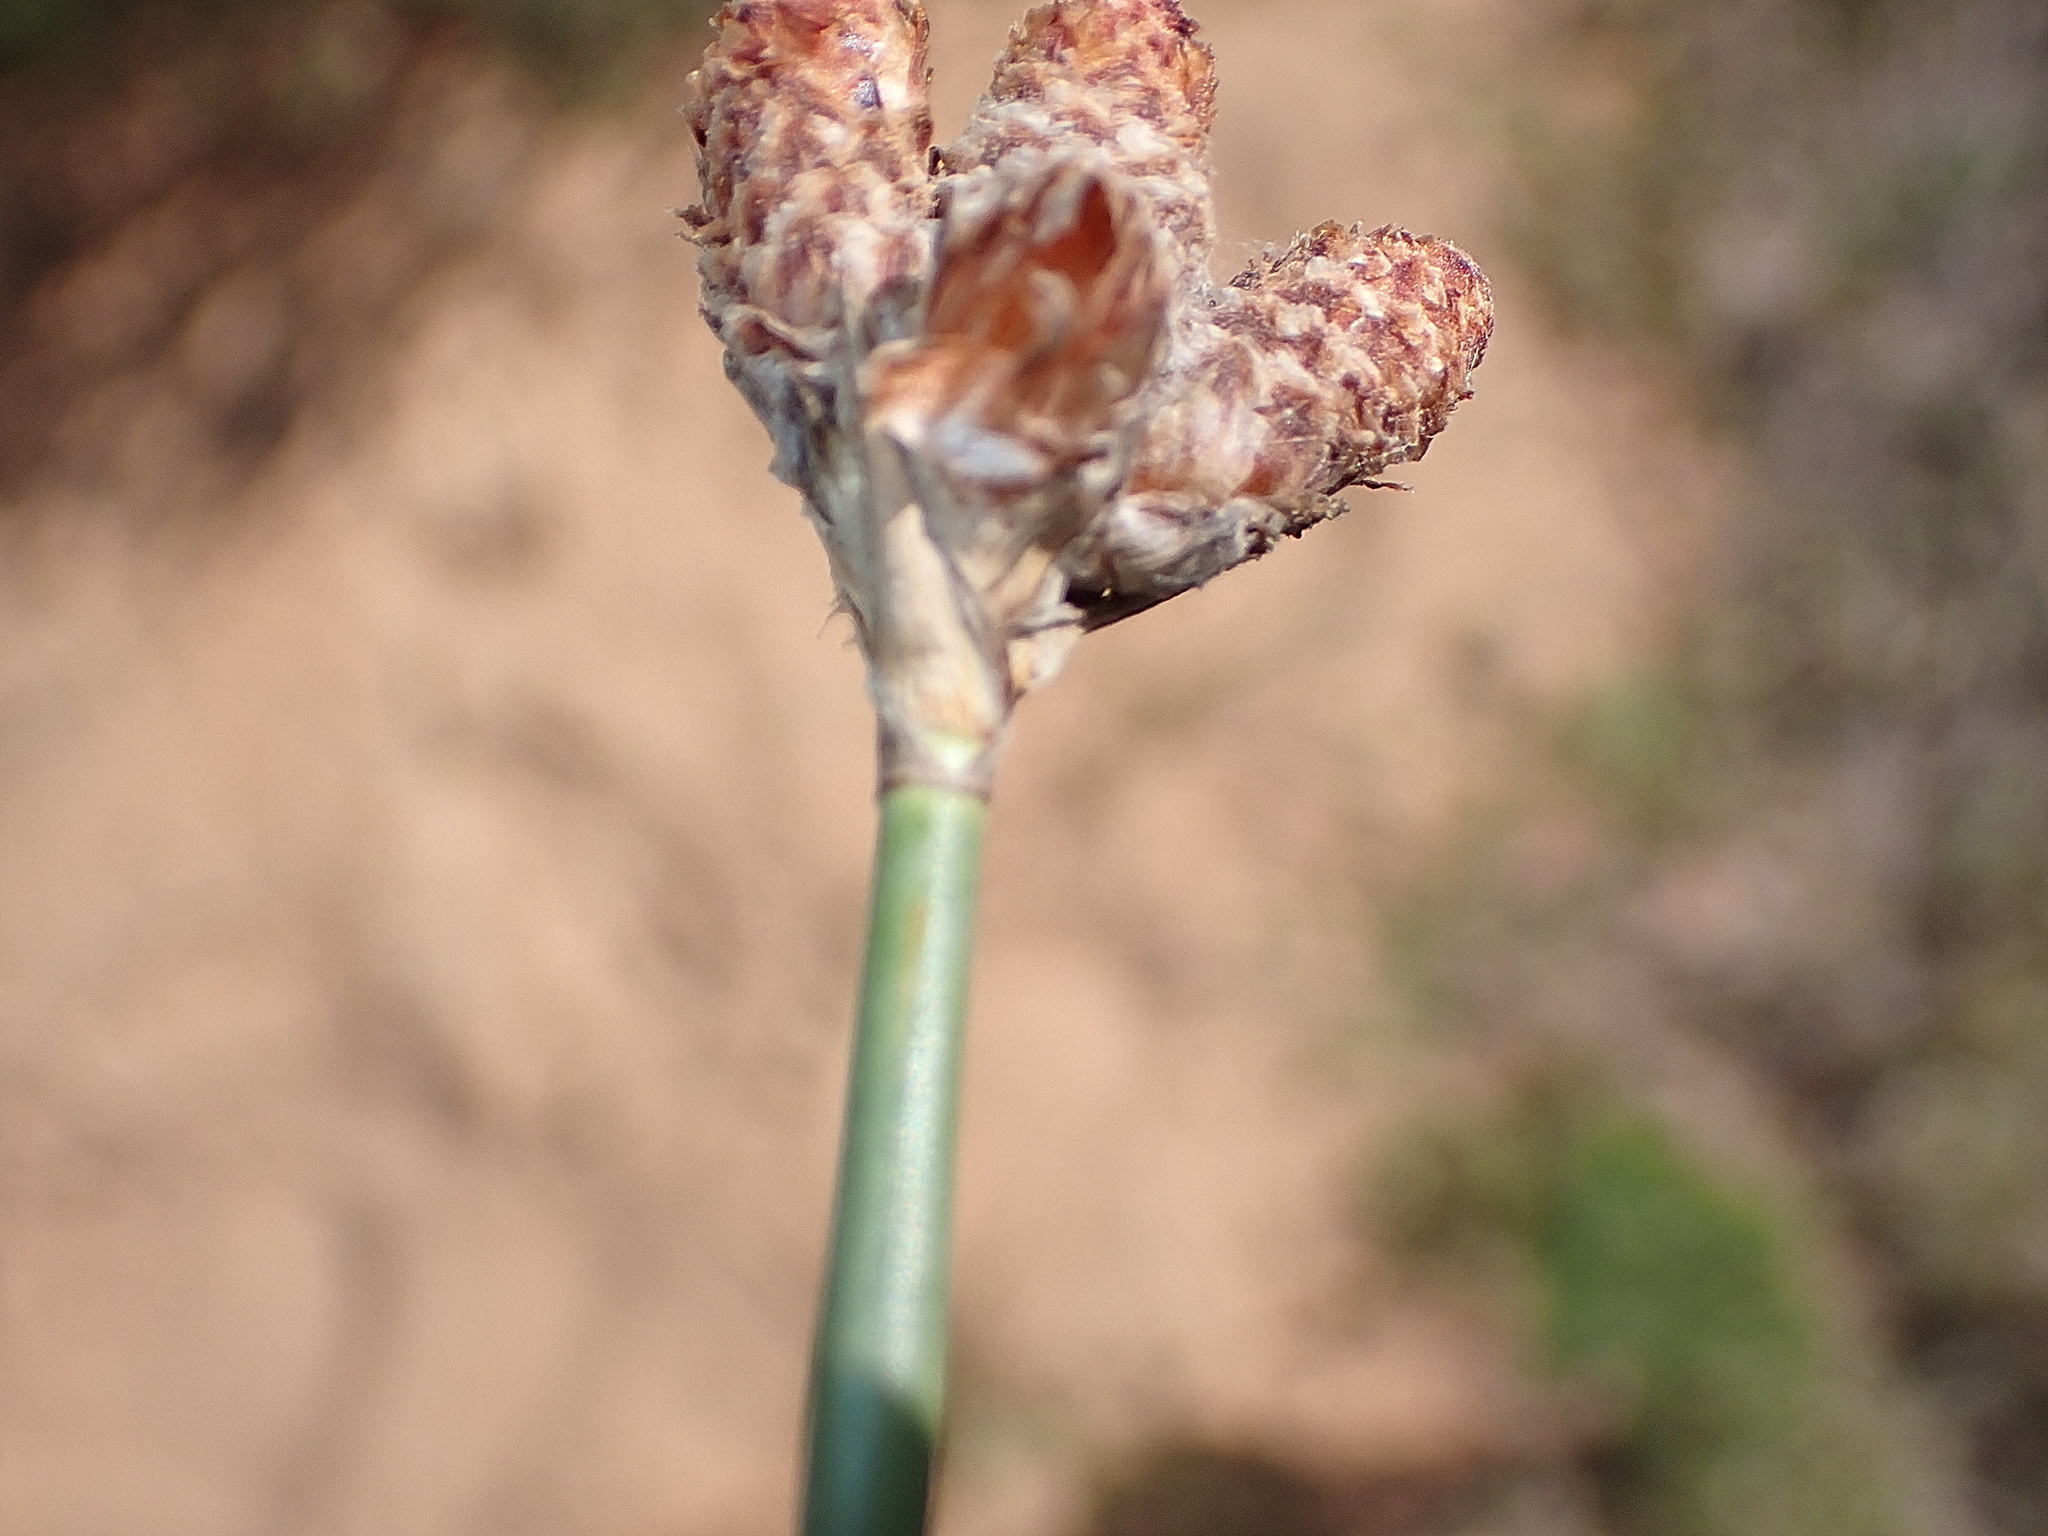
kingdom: Plantae
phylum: Tracheophyta
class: Liliopsida
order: Poales
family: Cyperaceae
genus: Hellmuthia
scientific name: Hellmuthia membranacea
